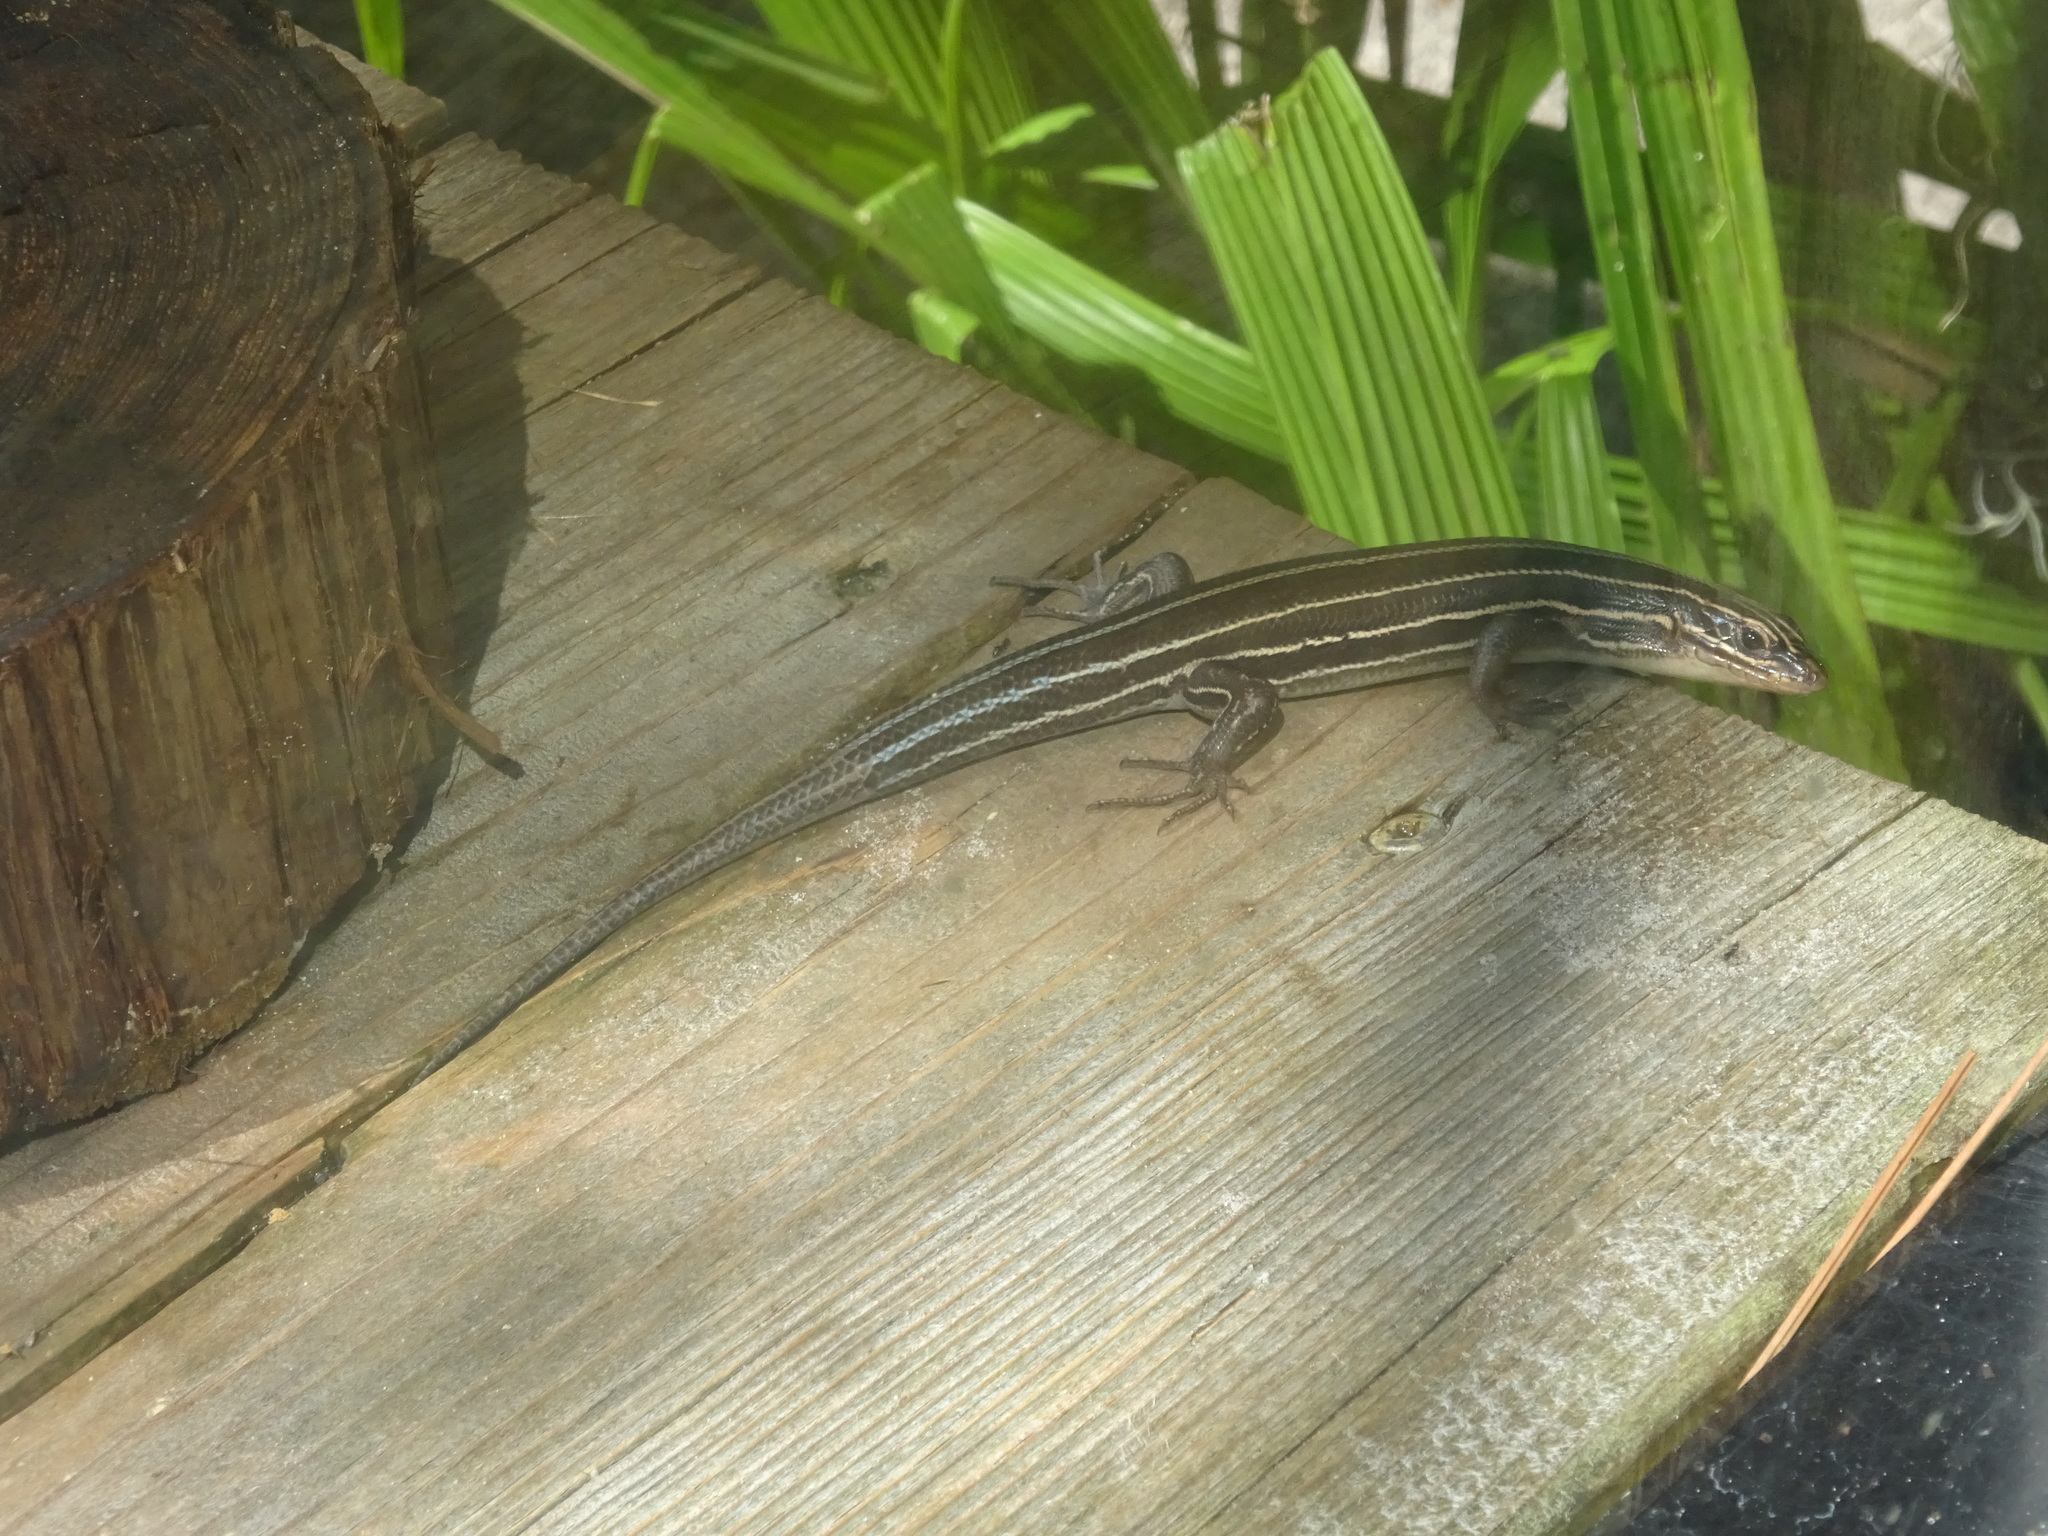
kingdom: Animalia
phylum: Chordata
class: Squamata
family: Scincidae
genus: Plestiodon
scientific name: Plestiodon inexpectatus
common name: Southeastern five-lined skink
